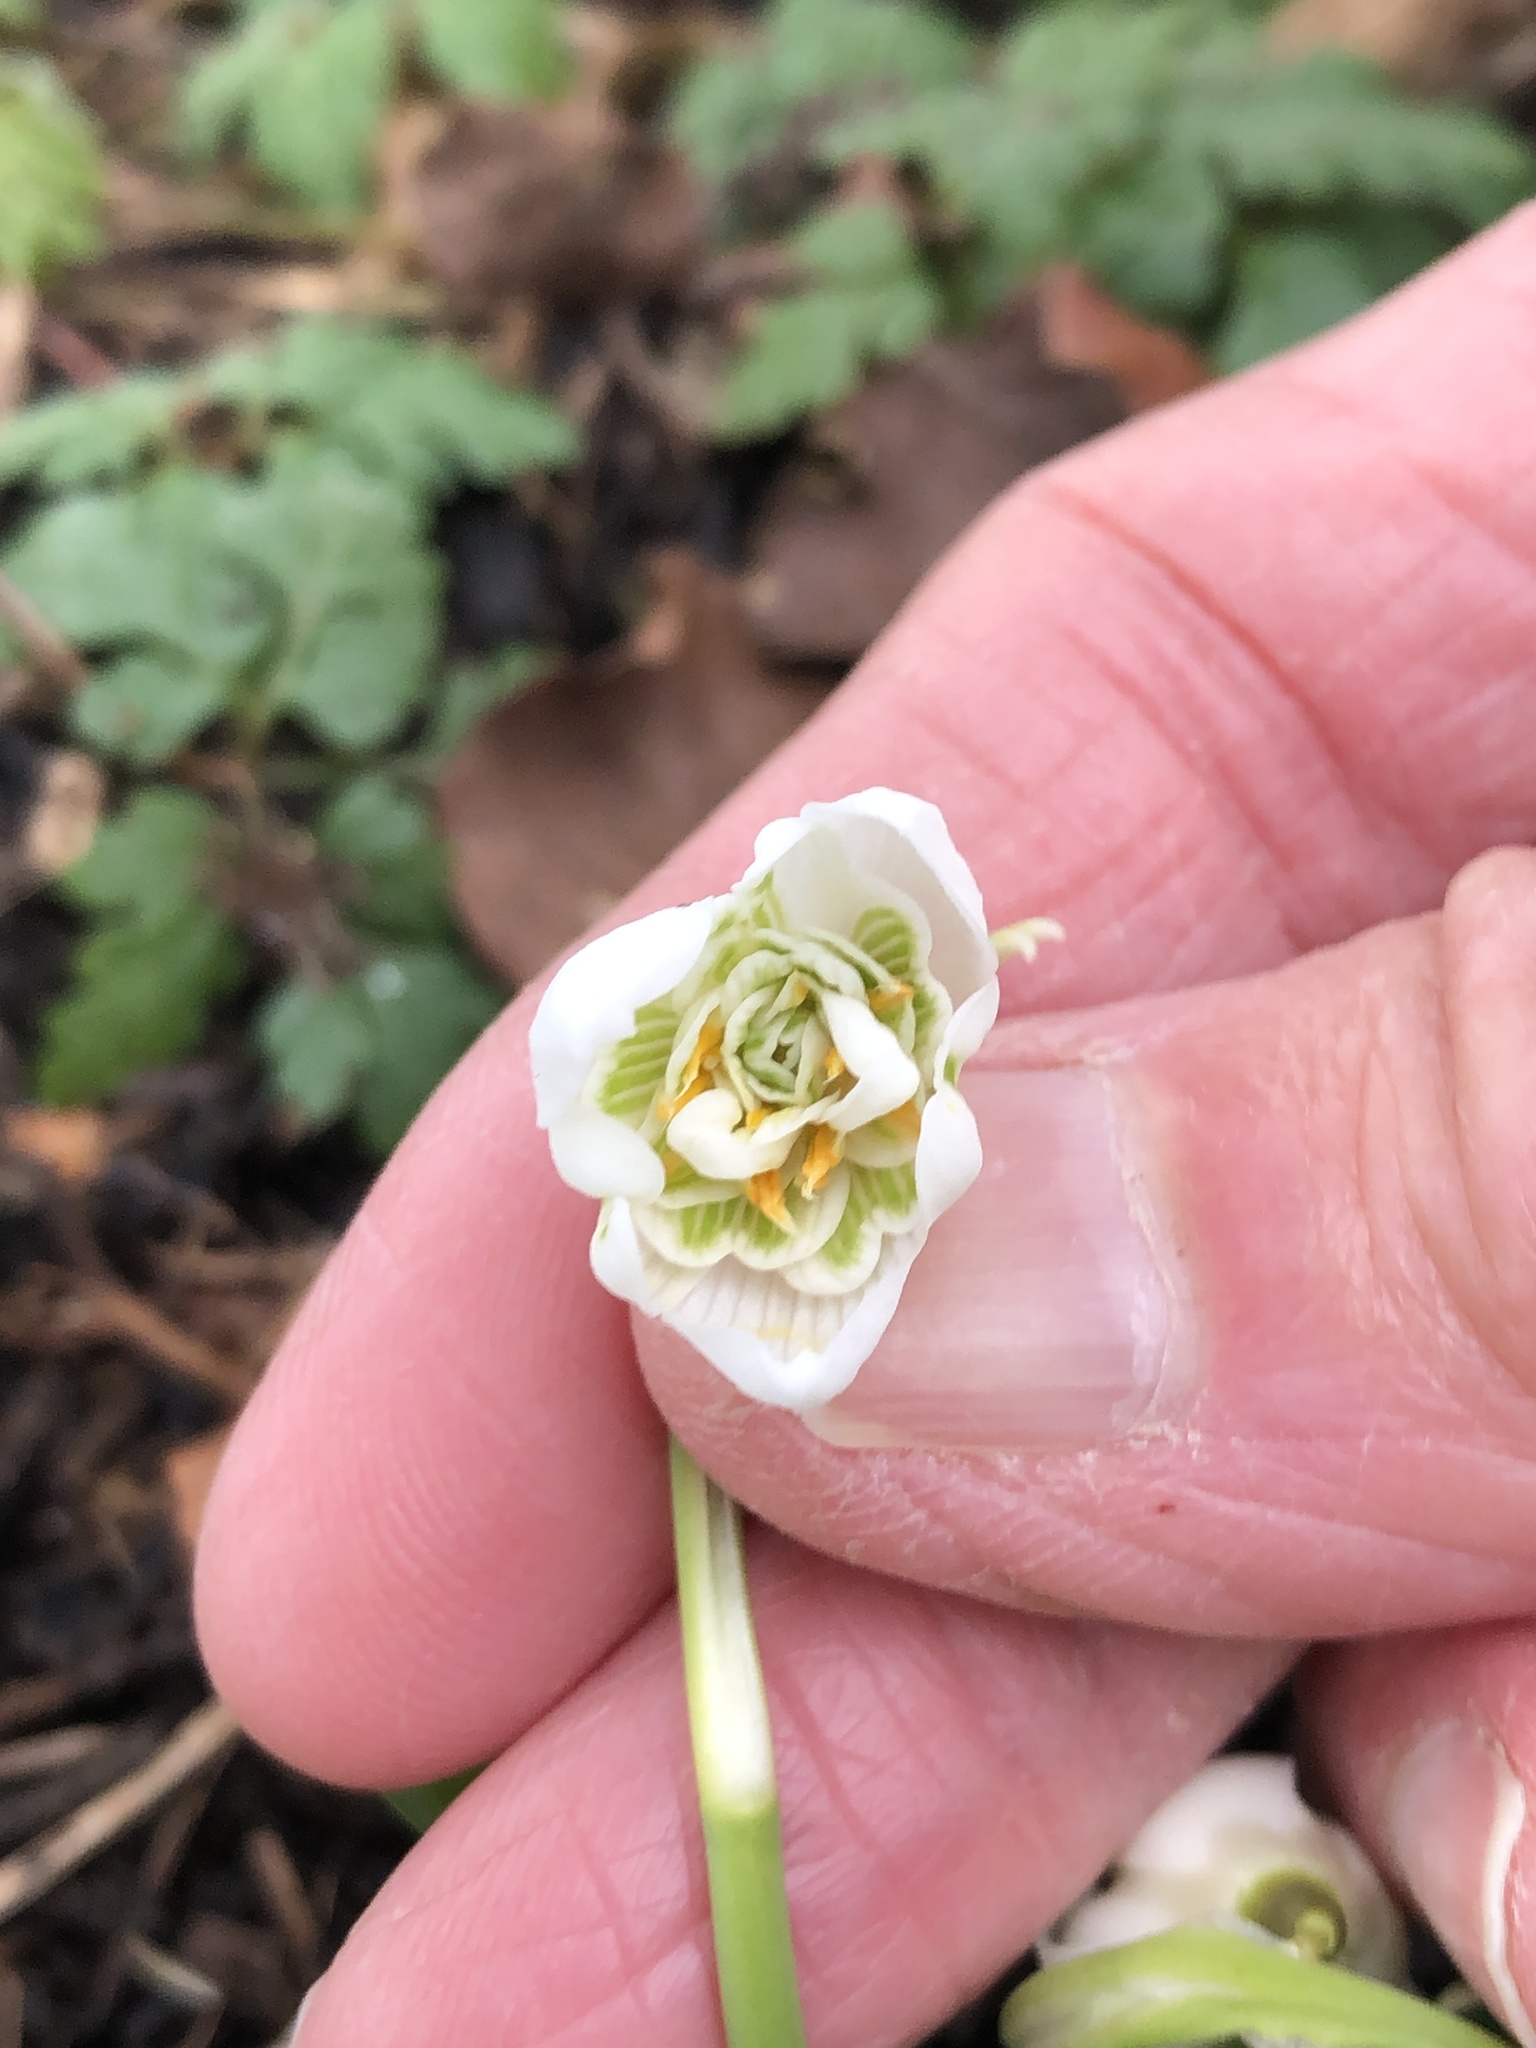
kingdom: Plantae
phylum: Tracheophyta
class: Liliopsida
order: Asparagales
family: Amaryllidaceae
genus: Galanthus
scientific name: Galanthus nivalis
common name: Snowdrop
